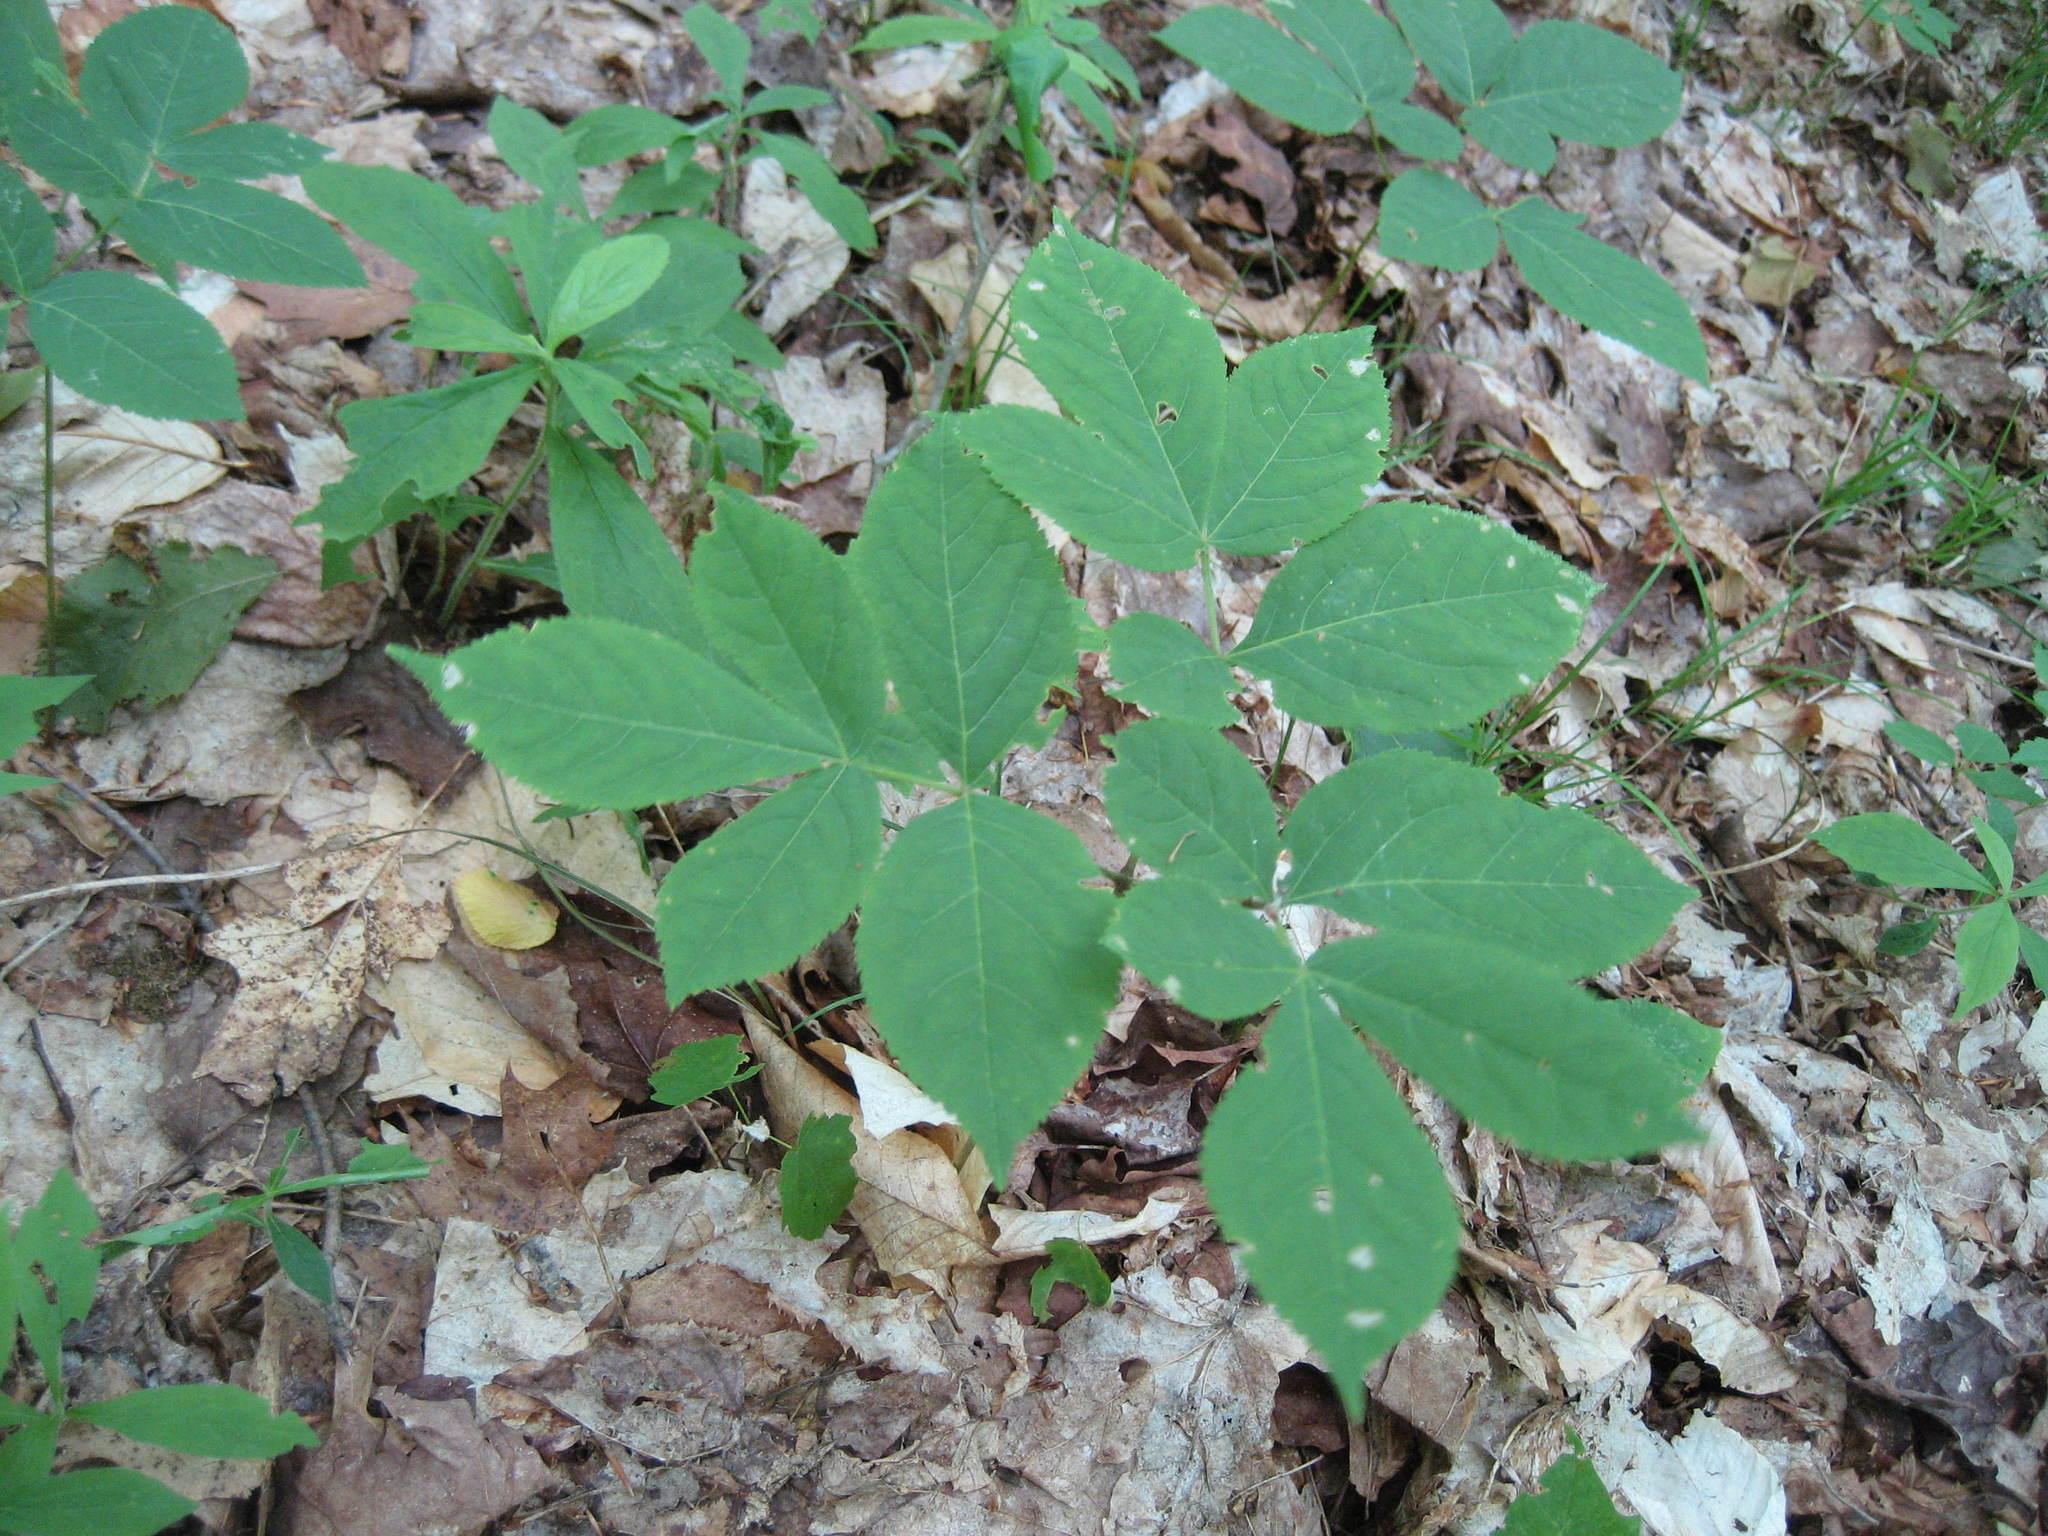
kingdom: Plantae
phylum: Tracheophyta
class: Magnoliopsida
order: Apiales
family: Araliaceae
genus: Aralia
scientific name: Aralia nudicaulis
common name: Wild sarsaparilla
